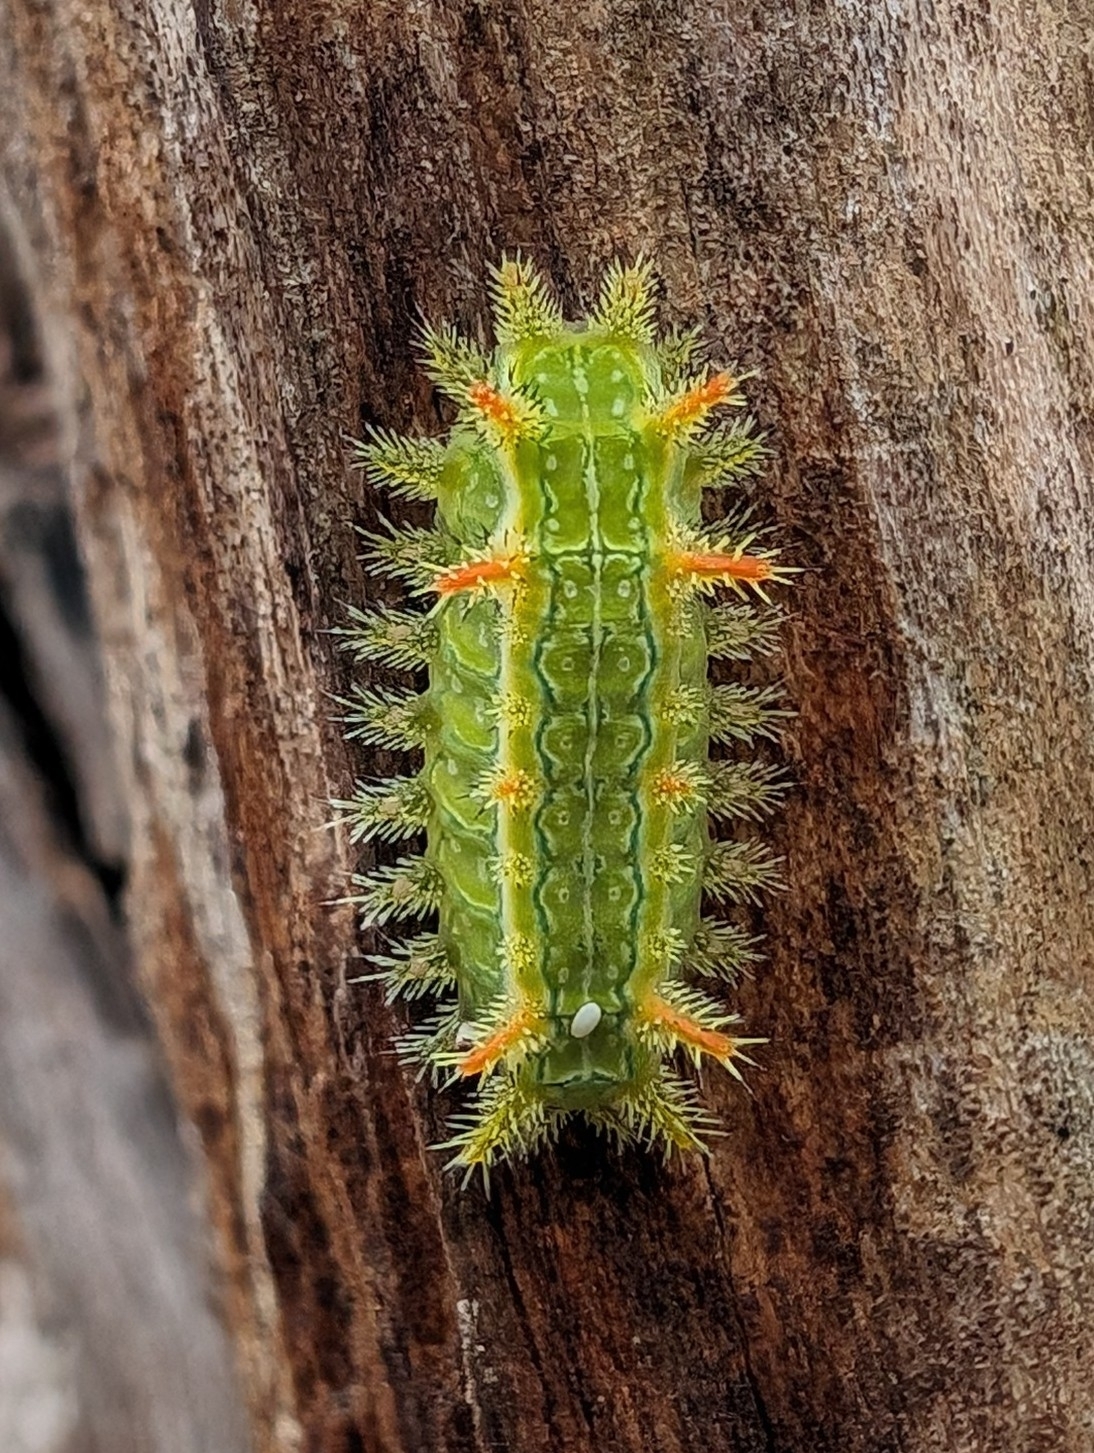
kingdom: Animalia
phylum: Arthropoda
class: Insecta
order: Lepidoptera
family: Limacodidae
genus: Euclea
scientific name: Euclea incisa
